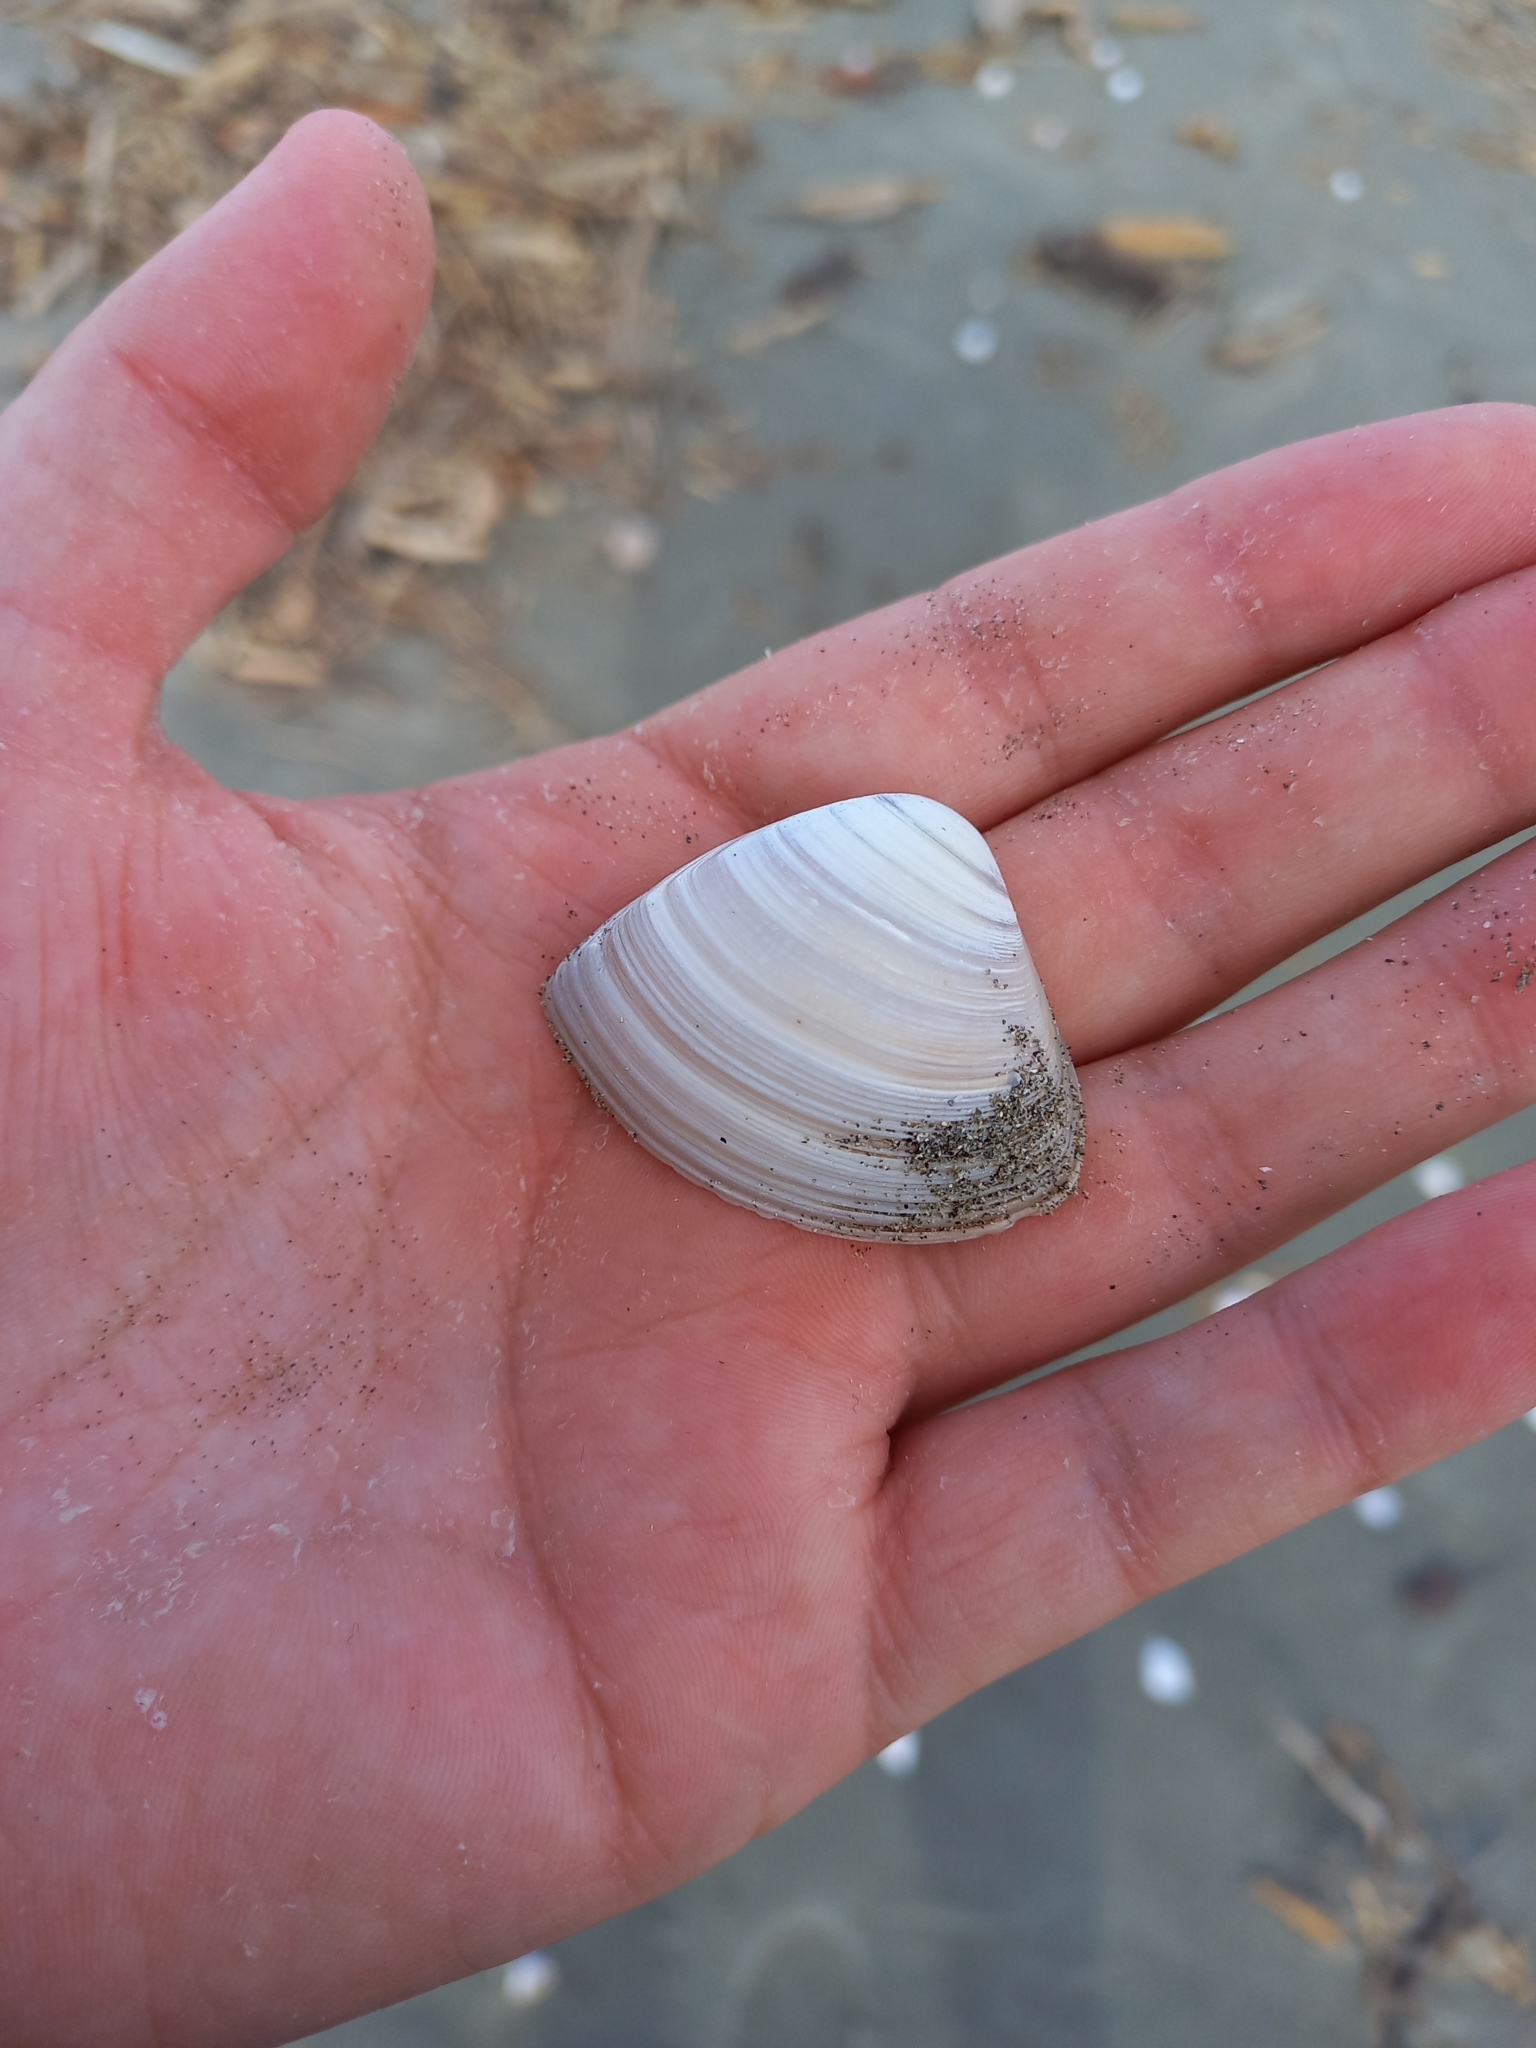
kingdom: Animalia
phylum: Mollusca
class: Bivalvia
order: Venerida
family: Mactridae
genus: Crassula
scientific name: Crassula aequilatera
